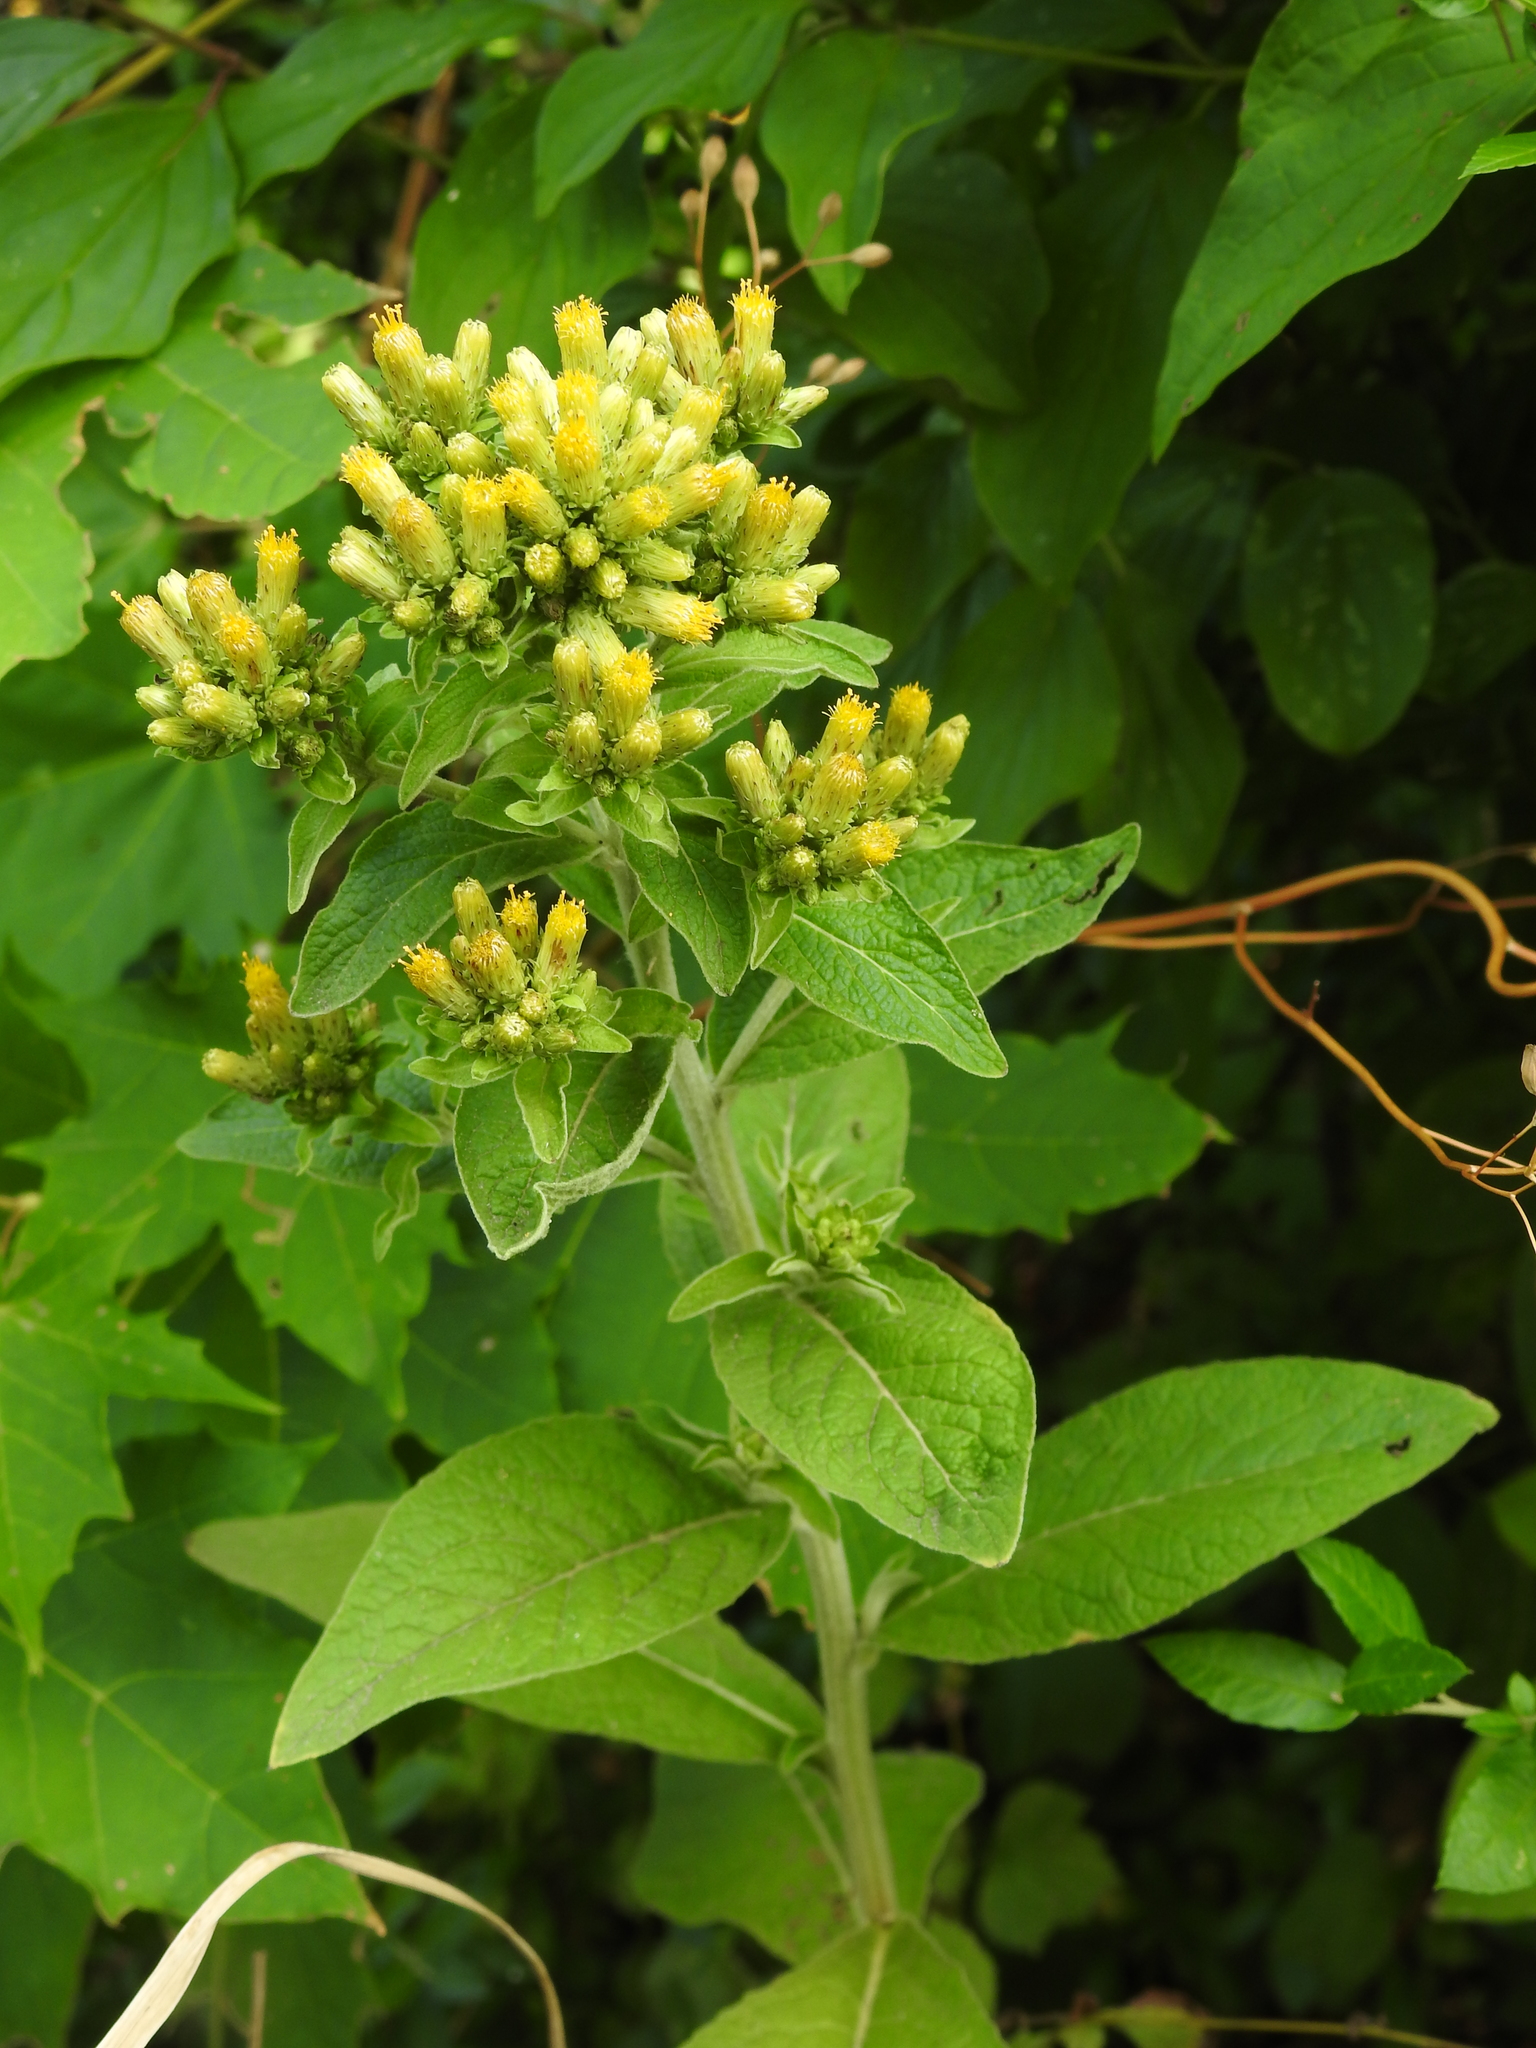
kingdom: Plantae
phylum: Tracheophyta
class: Magnoliopsida
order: Asterales
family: Asteraceae
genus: Pentanema
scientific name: Pentanema squarrosum
